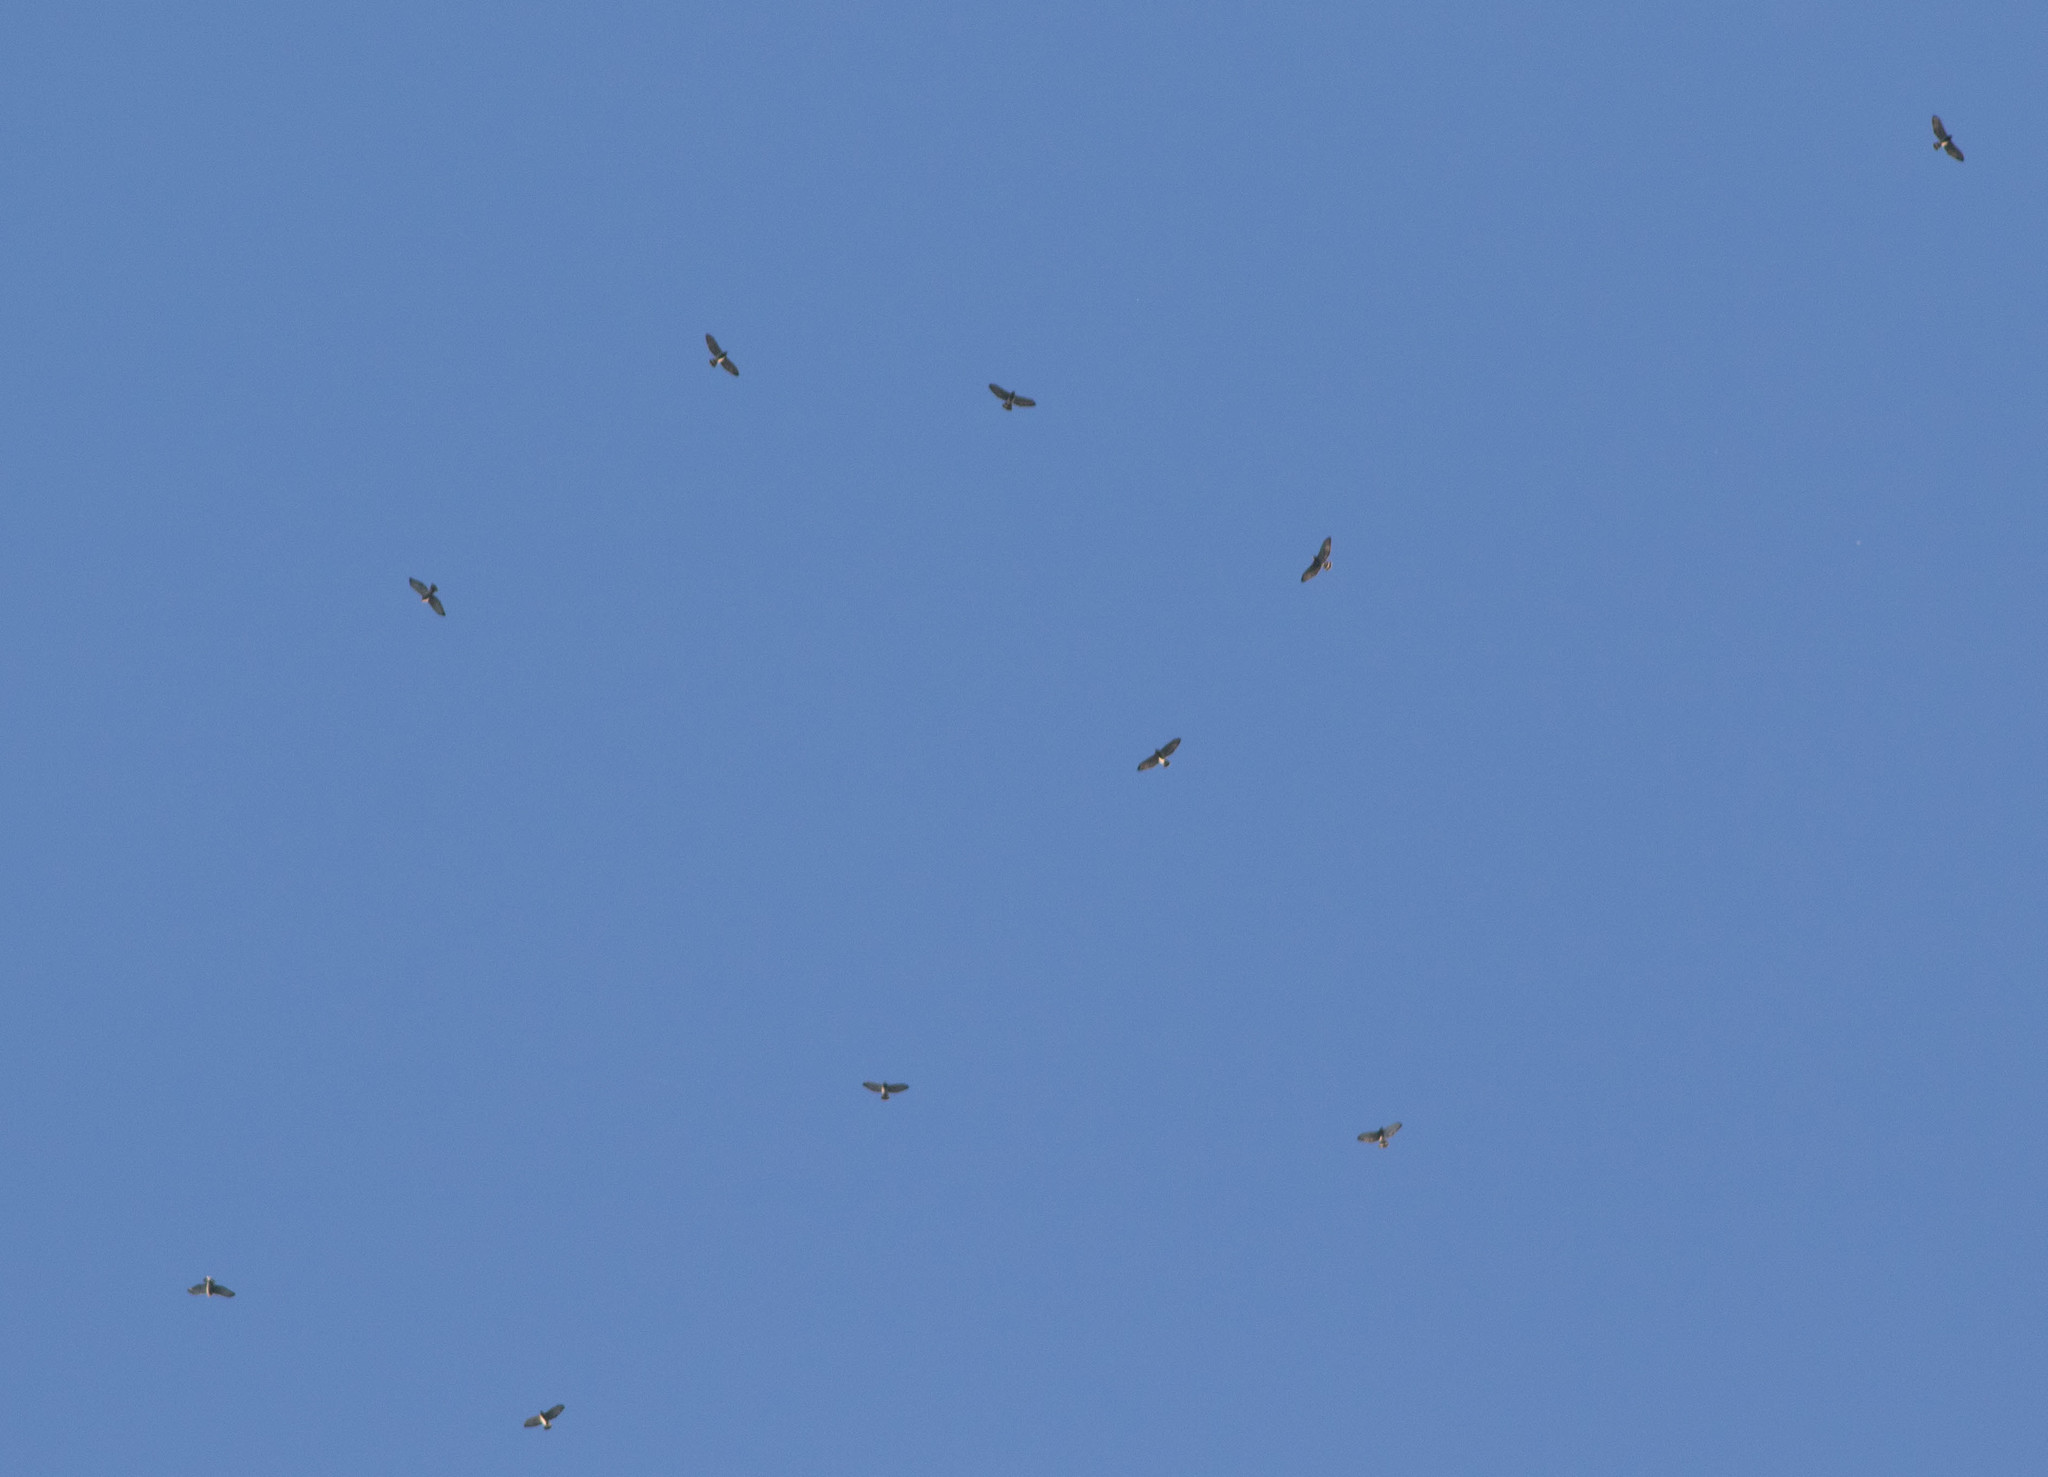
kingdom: Animalia
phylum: Chordata
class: Aves
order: Accipitriformes
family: Accipitridae
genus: Buteo
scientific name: Buteo platypterus
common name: Broad-winged hawk
